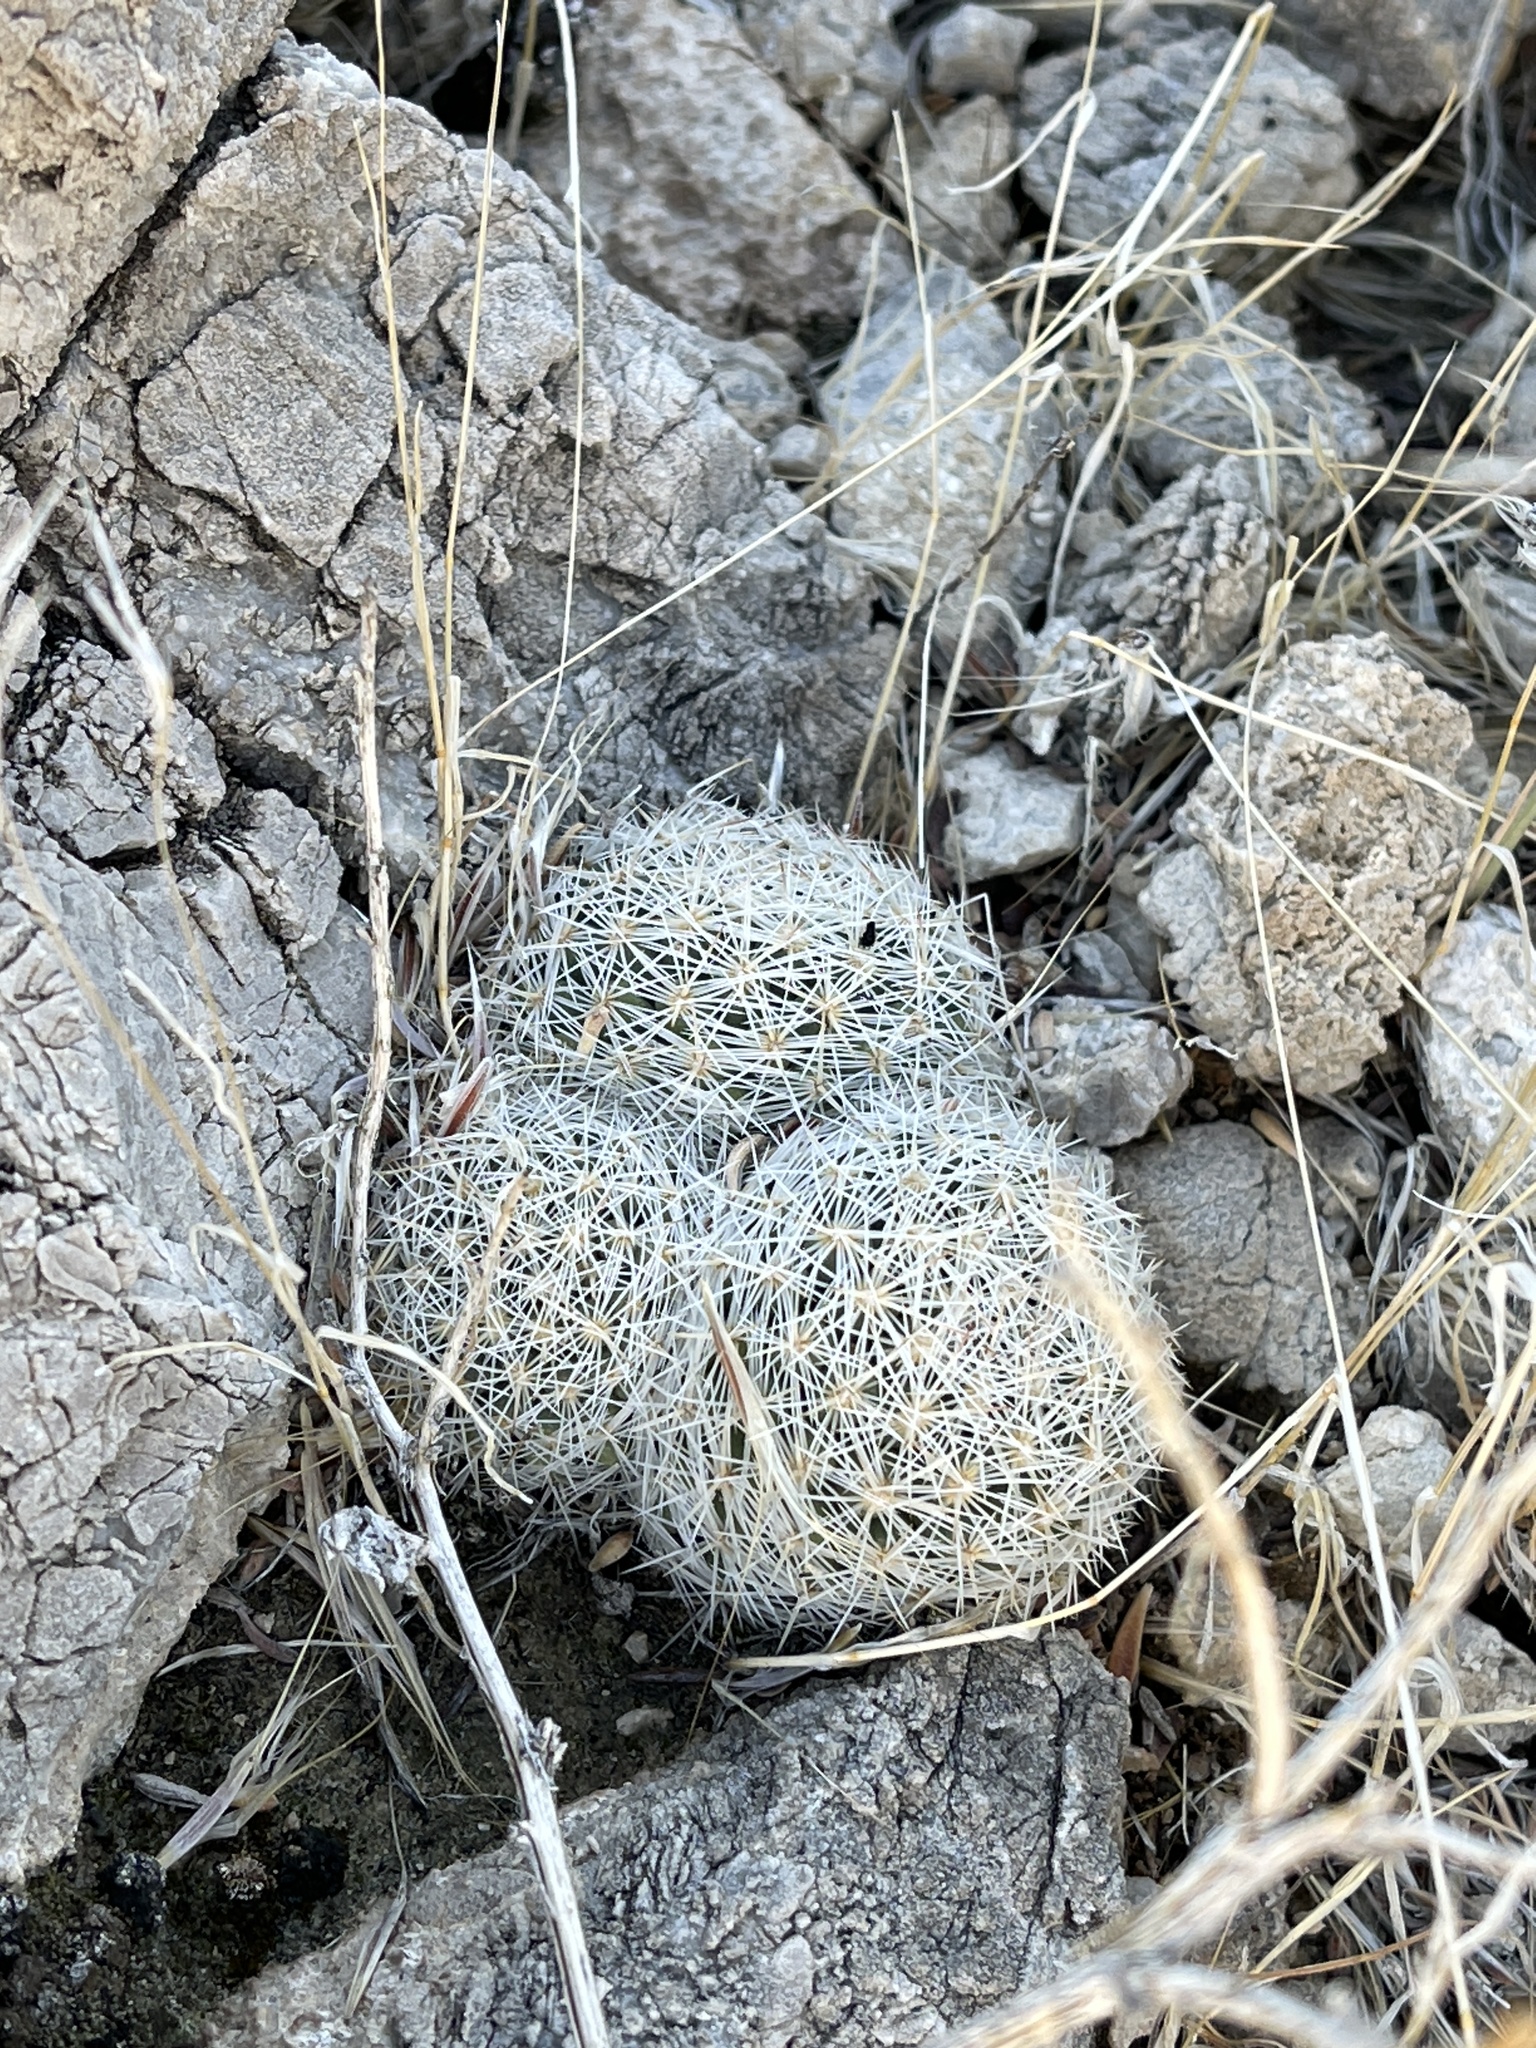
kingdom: Plantae
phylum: Tracheophyta
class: Magnoliopsida
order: Caryophyllales
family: Cactaceae
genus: Pelecyphora
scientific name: Pelecyphora vivipara
